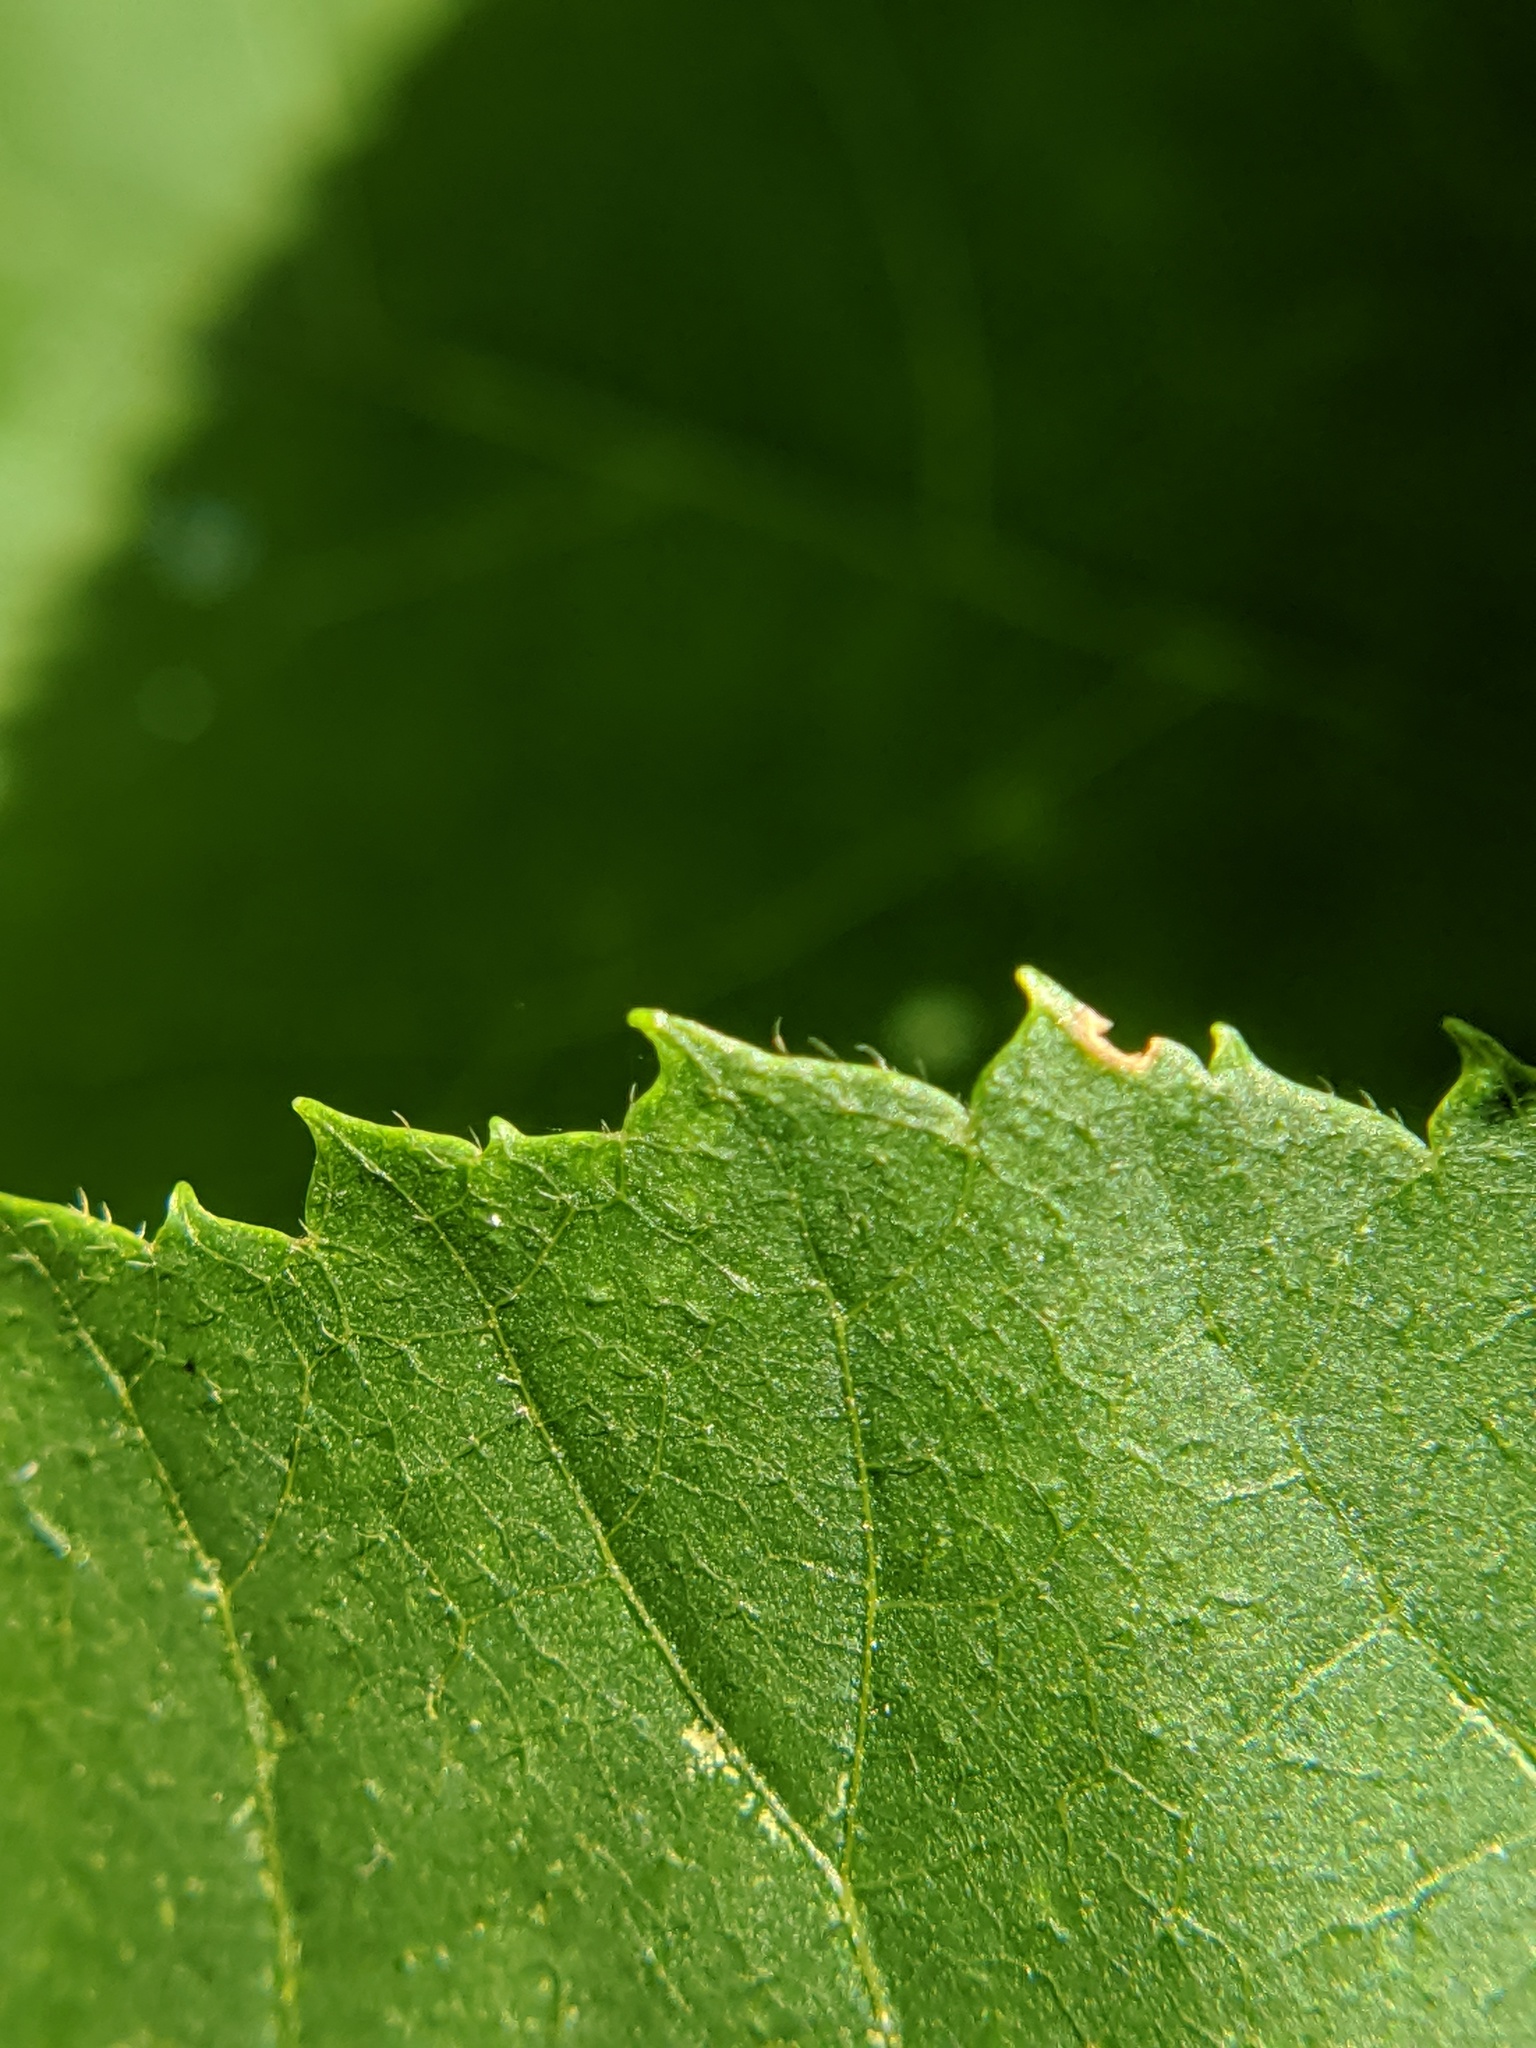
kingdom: Plantae
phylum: Tracheophyta
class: Magnoliopsida
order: Fagales
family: Juglandaceae
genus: Carya
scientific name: Carya cordiformis
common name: Bitternut hickory
